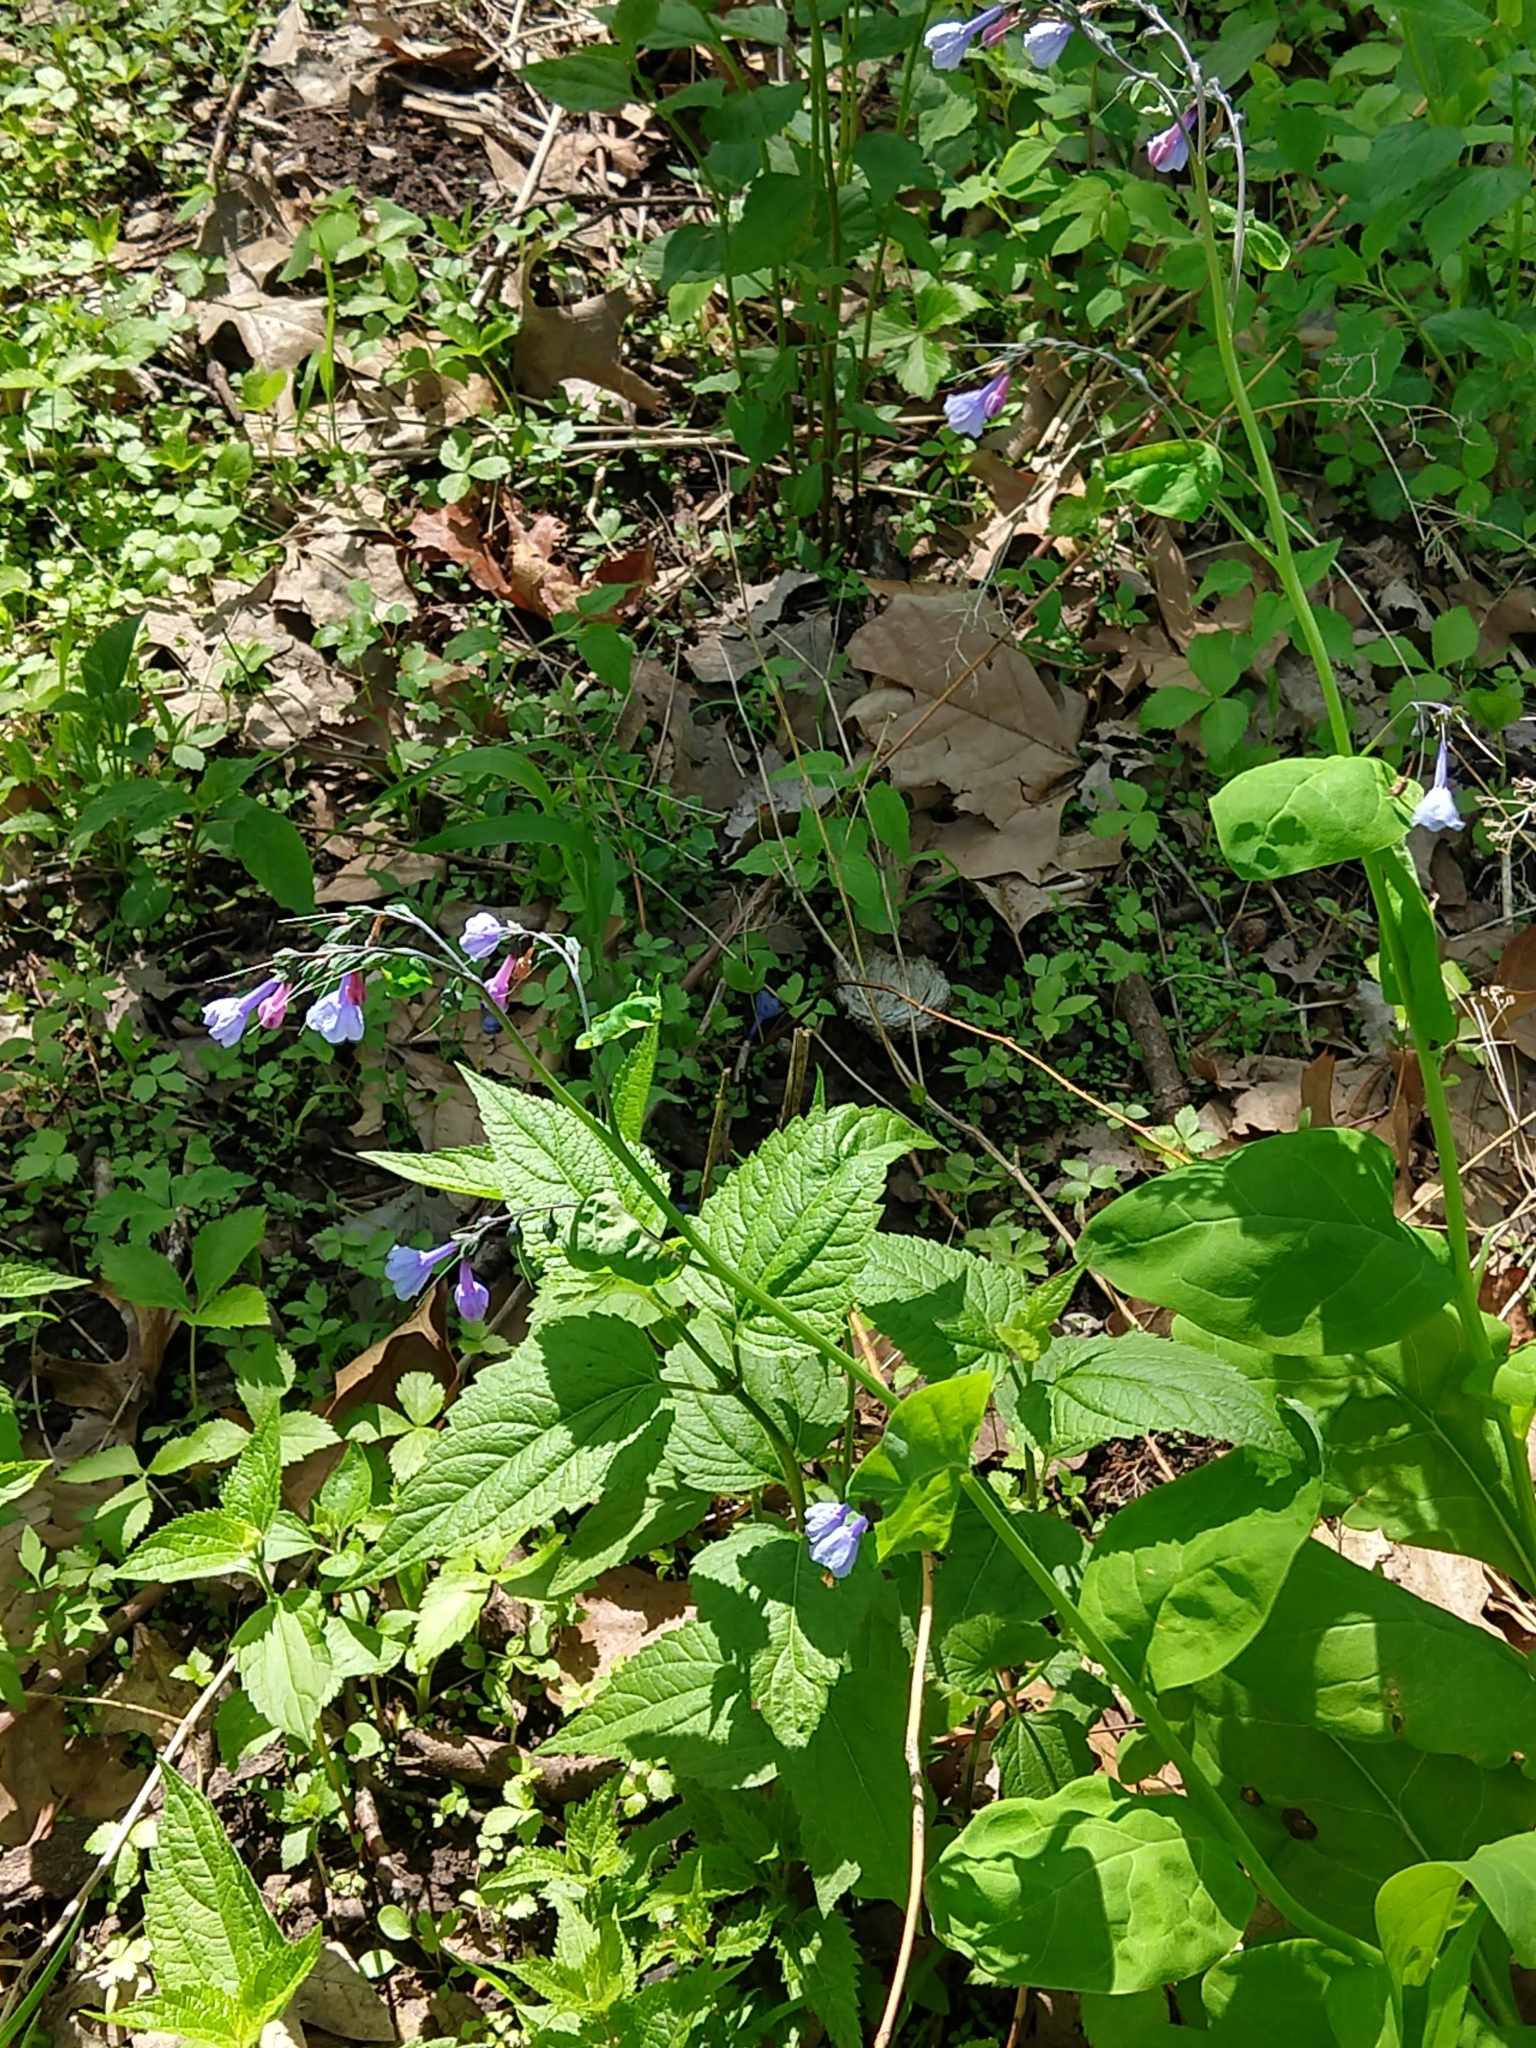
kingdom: Plantae
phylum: Tracheophyta
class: Magnoliopsida
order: Boraginales
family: Boraginaceae
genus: Mertensia
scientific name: Mertensia virginica
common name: Virginia bluebells
